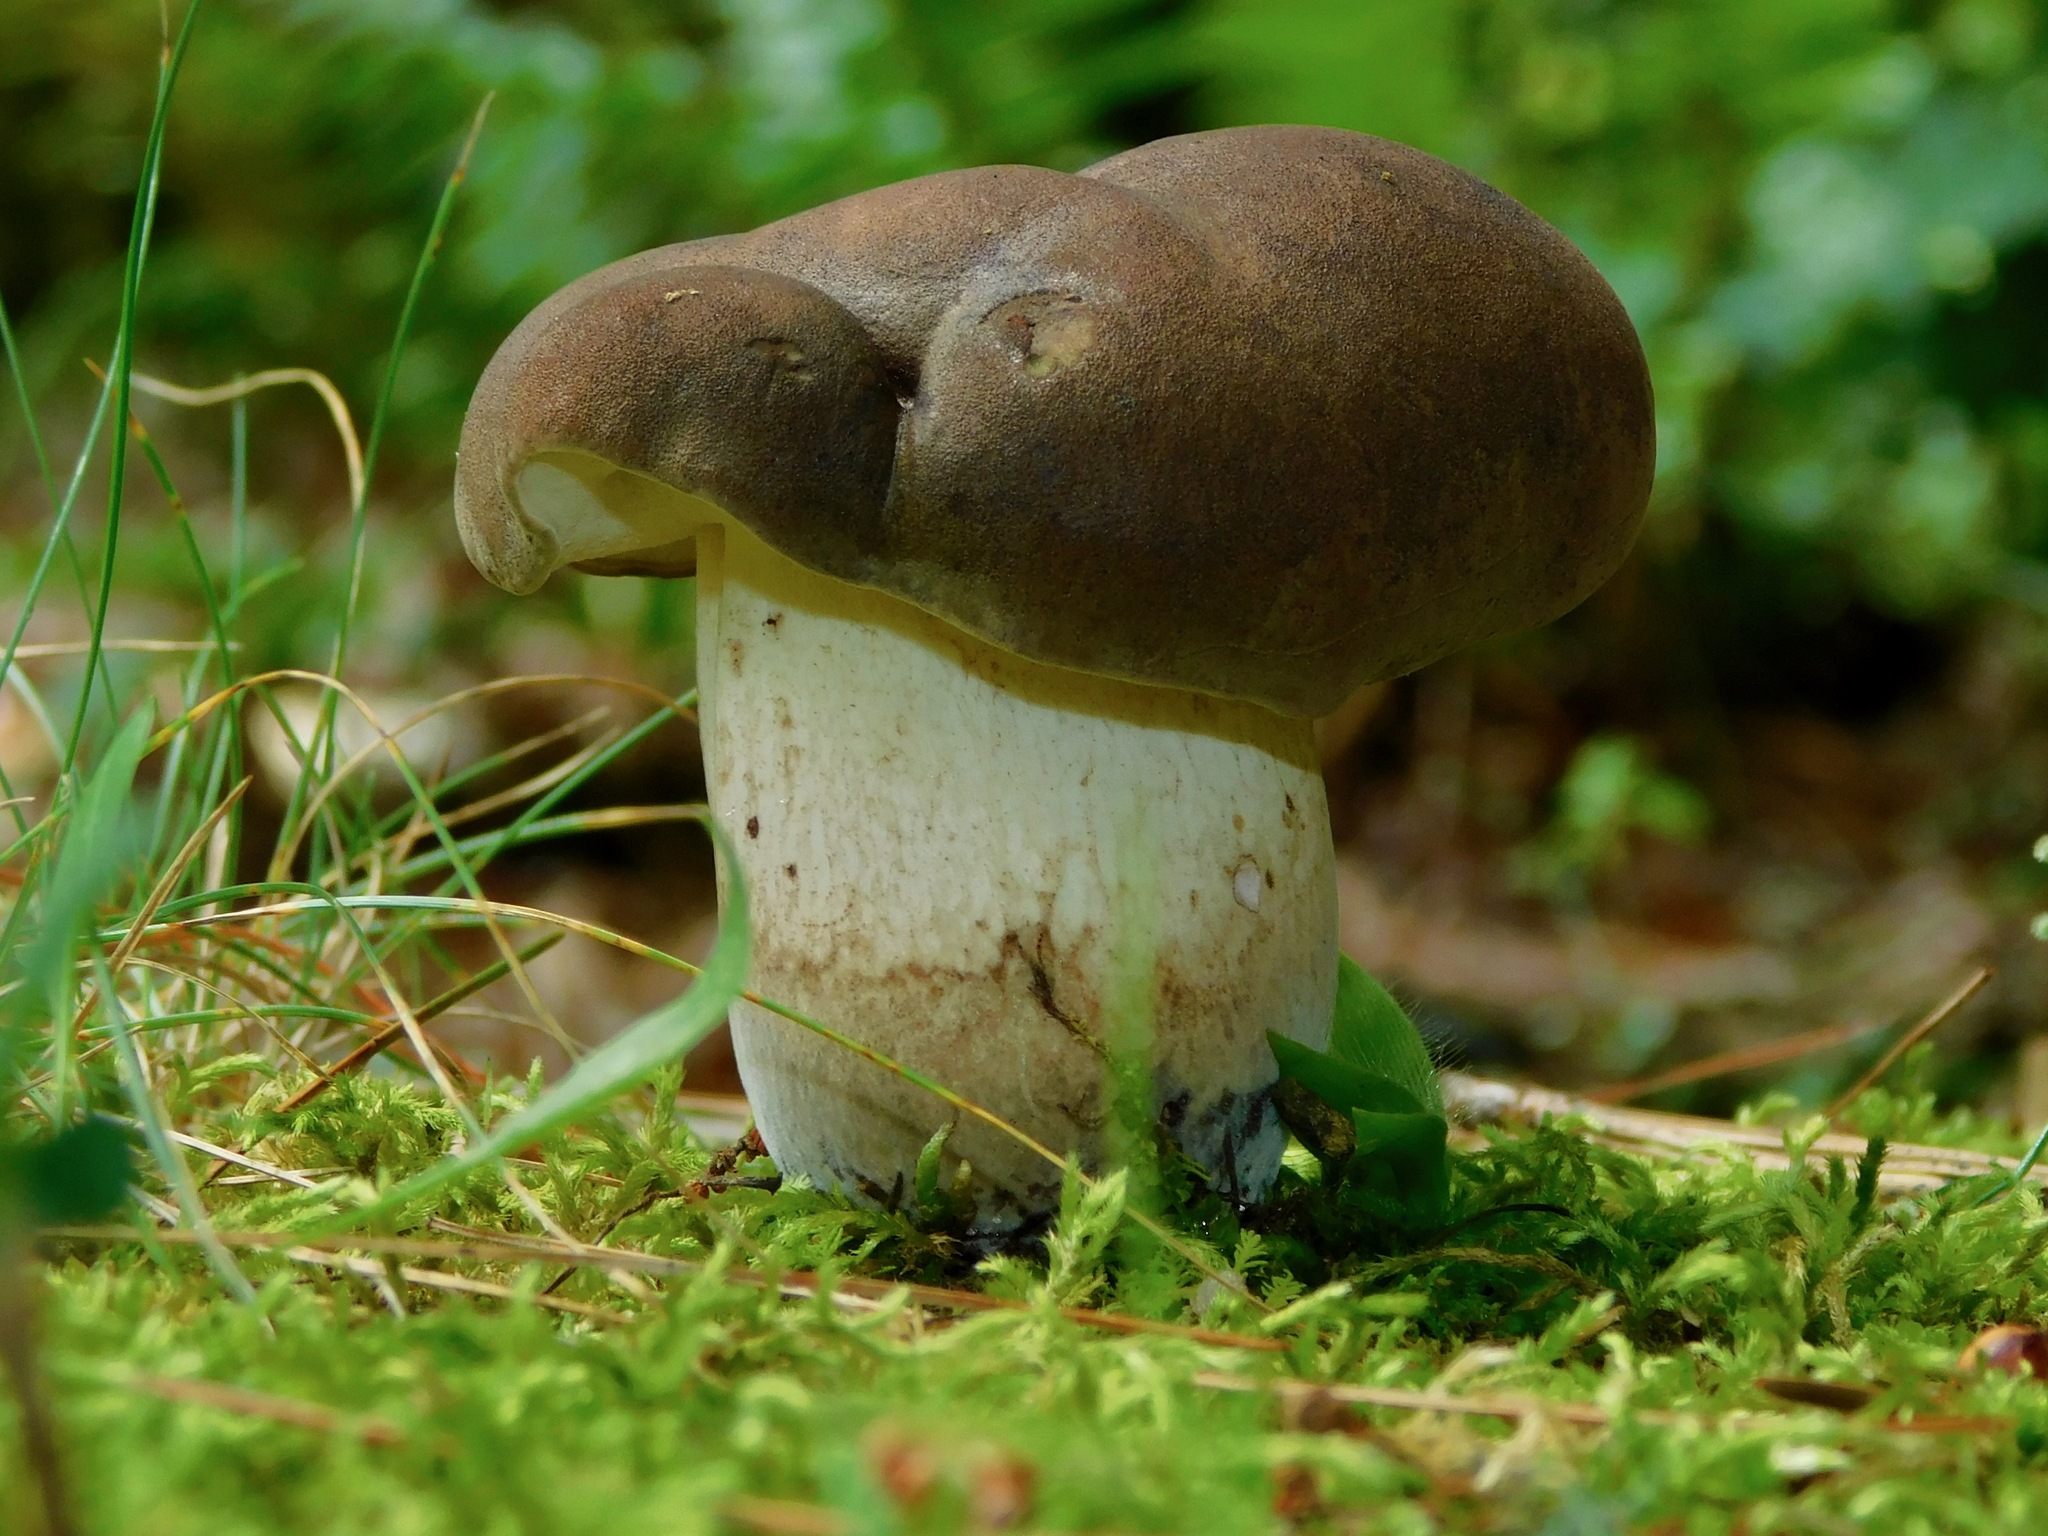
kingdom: Fungi
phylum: Basidiomycota
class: Agaricomycetes
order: Boletales
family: Boletaceae
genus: Tylopilus
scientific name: Tylopilus rubrobrunneus
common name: Reddish brown bitter bolete
